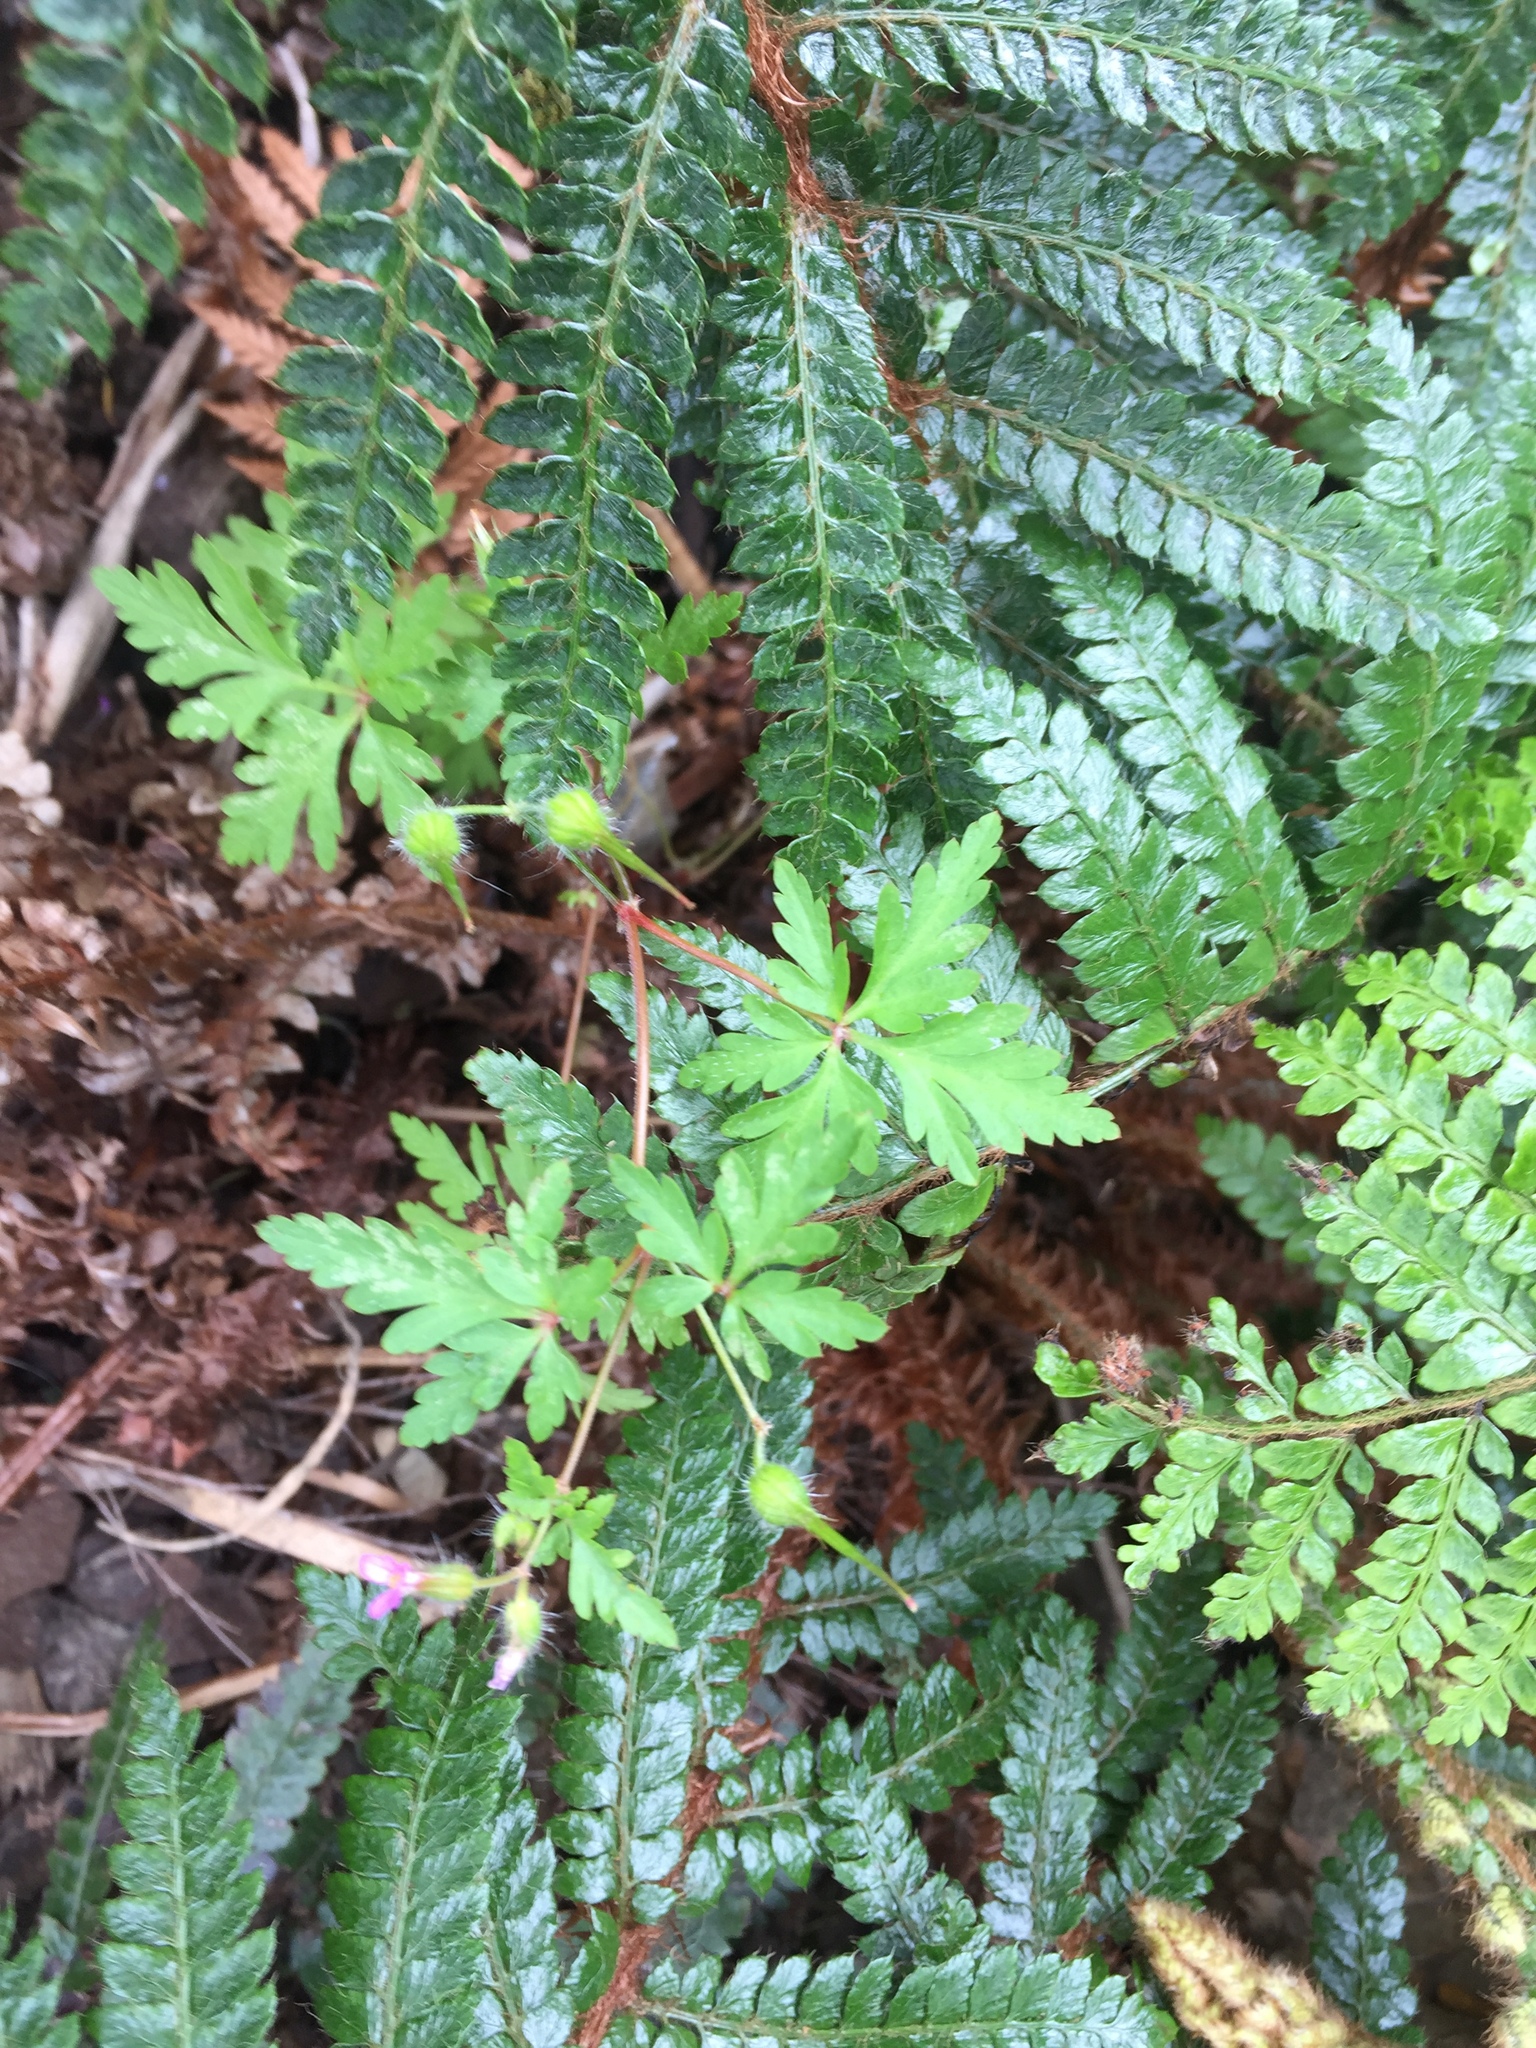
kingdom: Plantae
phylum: Tracheophyta
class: Magnoliopsida
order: Geraniales
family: Geraniaceae
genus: Geranium
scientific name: Geranium robertianum
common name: Herb-robert
